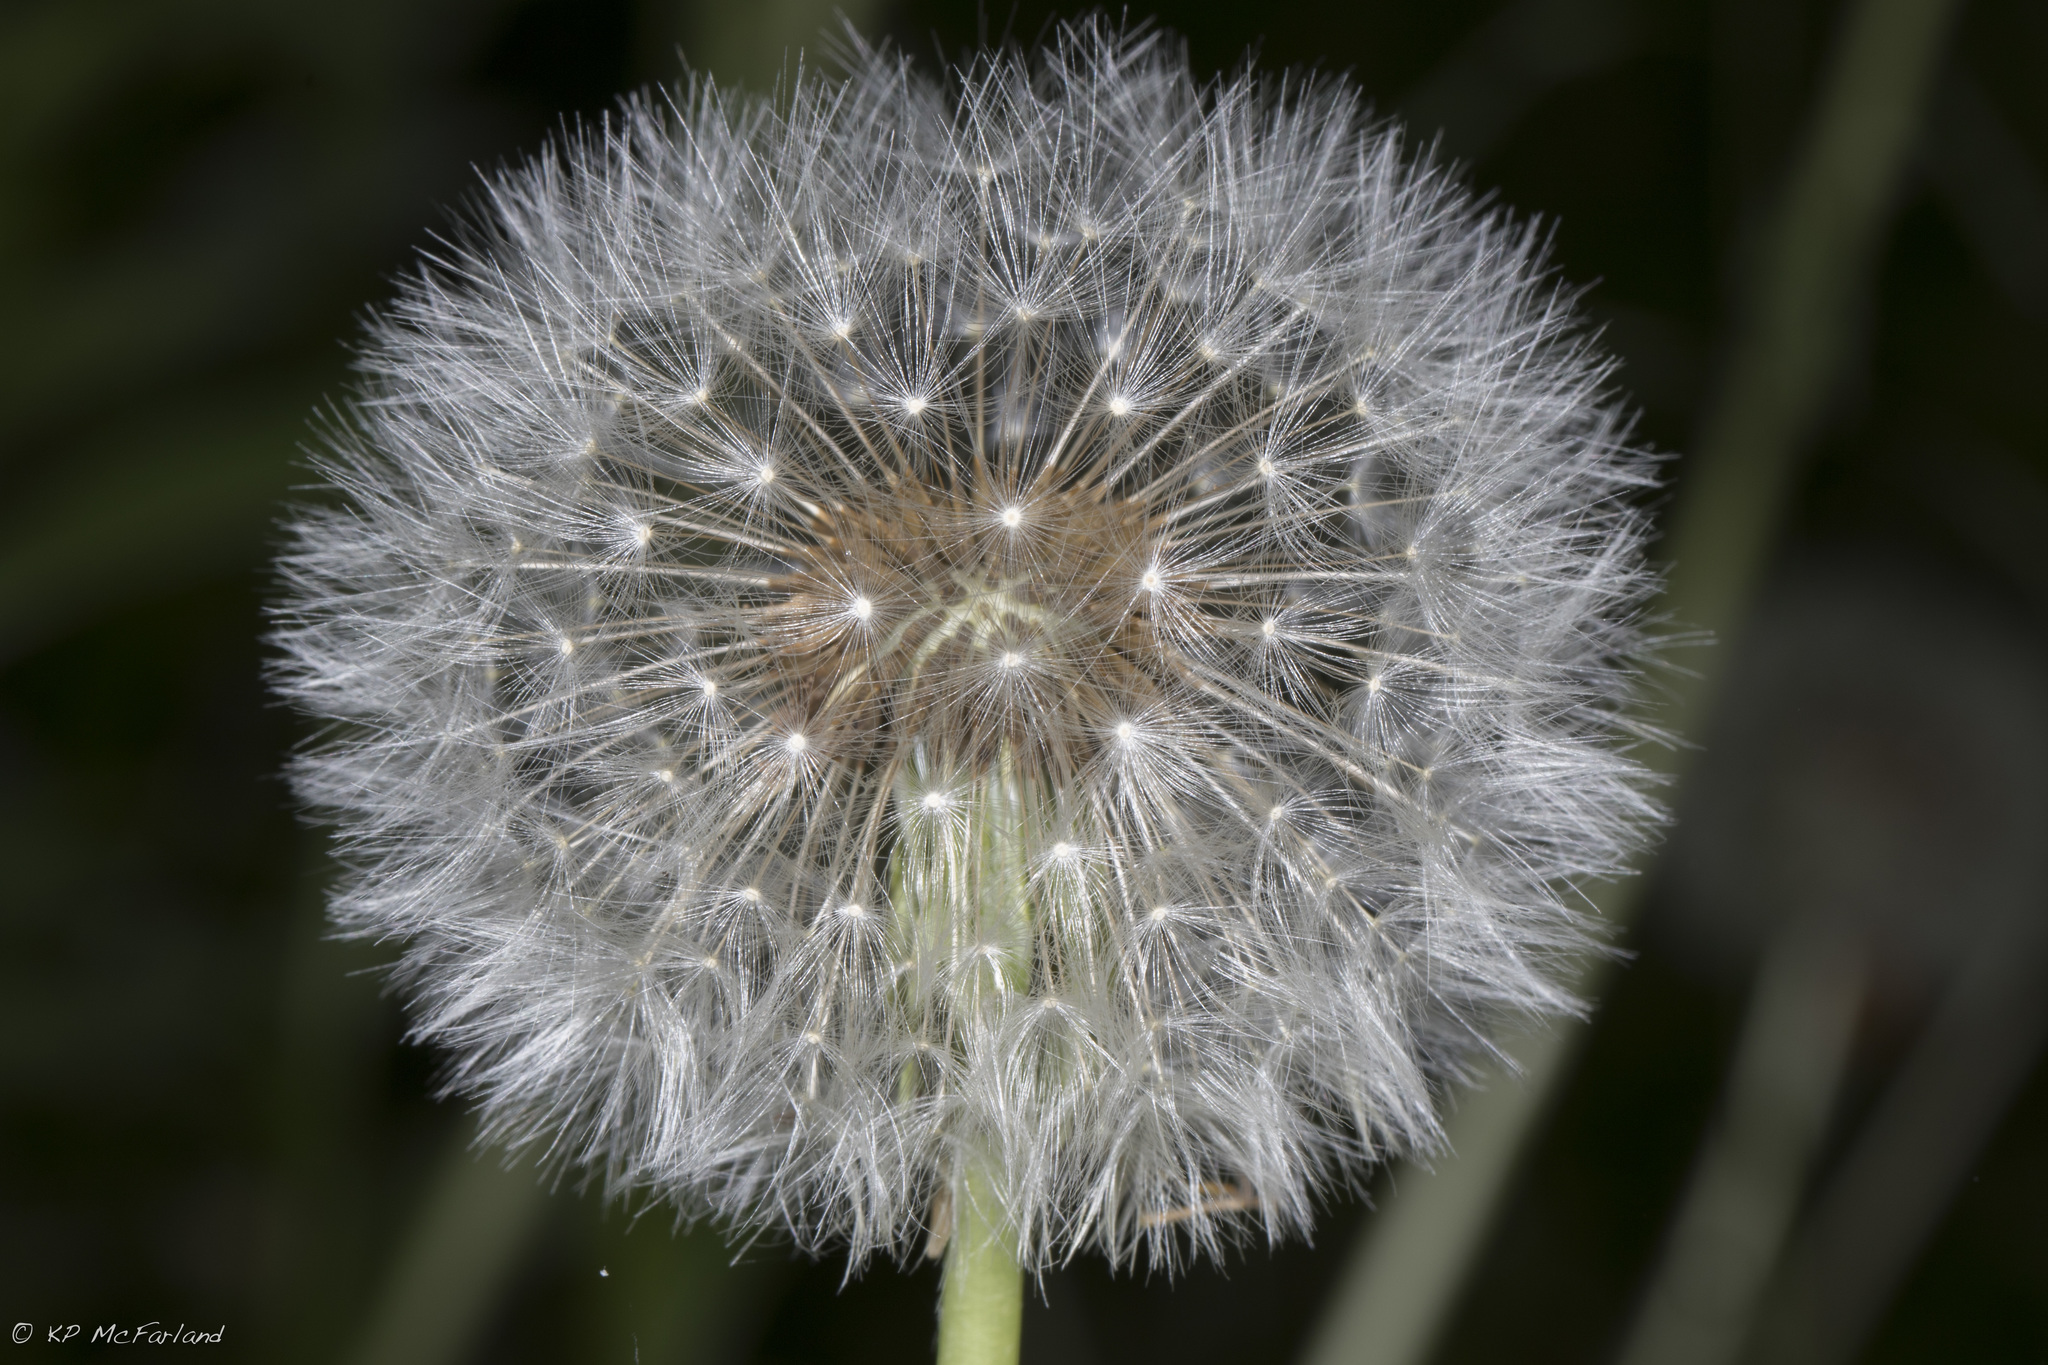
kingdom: Plantae
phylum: Tracheophyta
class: Magnoliopsida
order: Asterales
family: Asteraceae
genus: Taraxacum
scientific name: Taraxacum officinale
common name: Common dandelion
